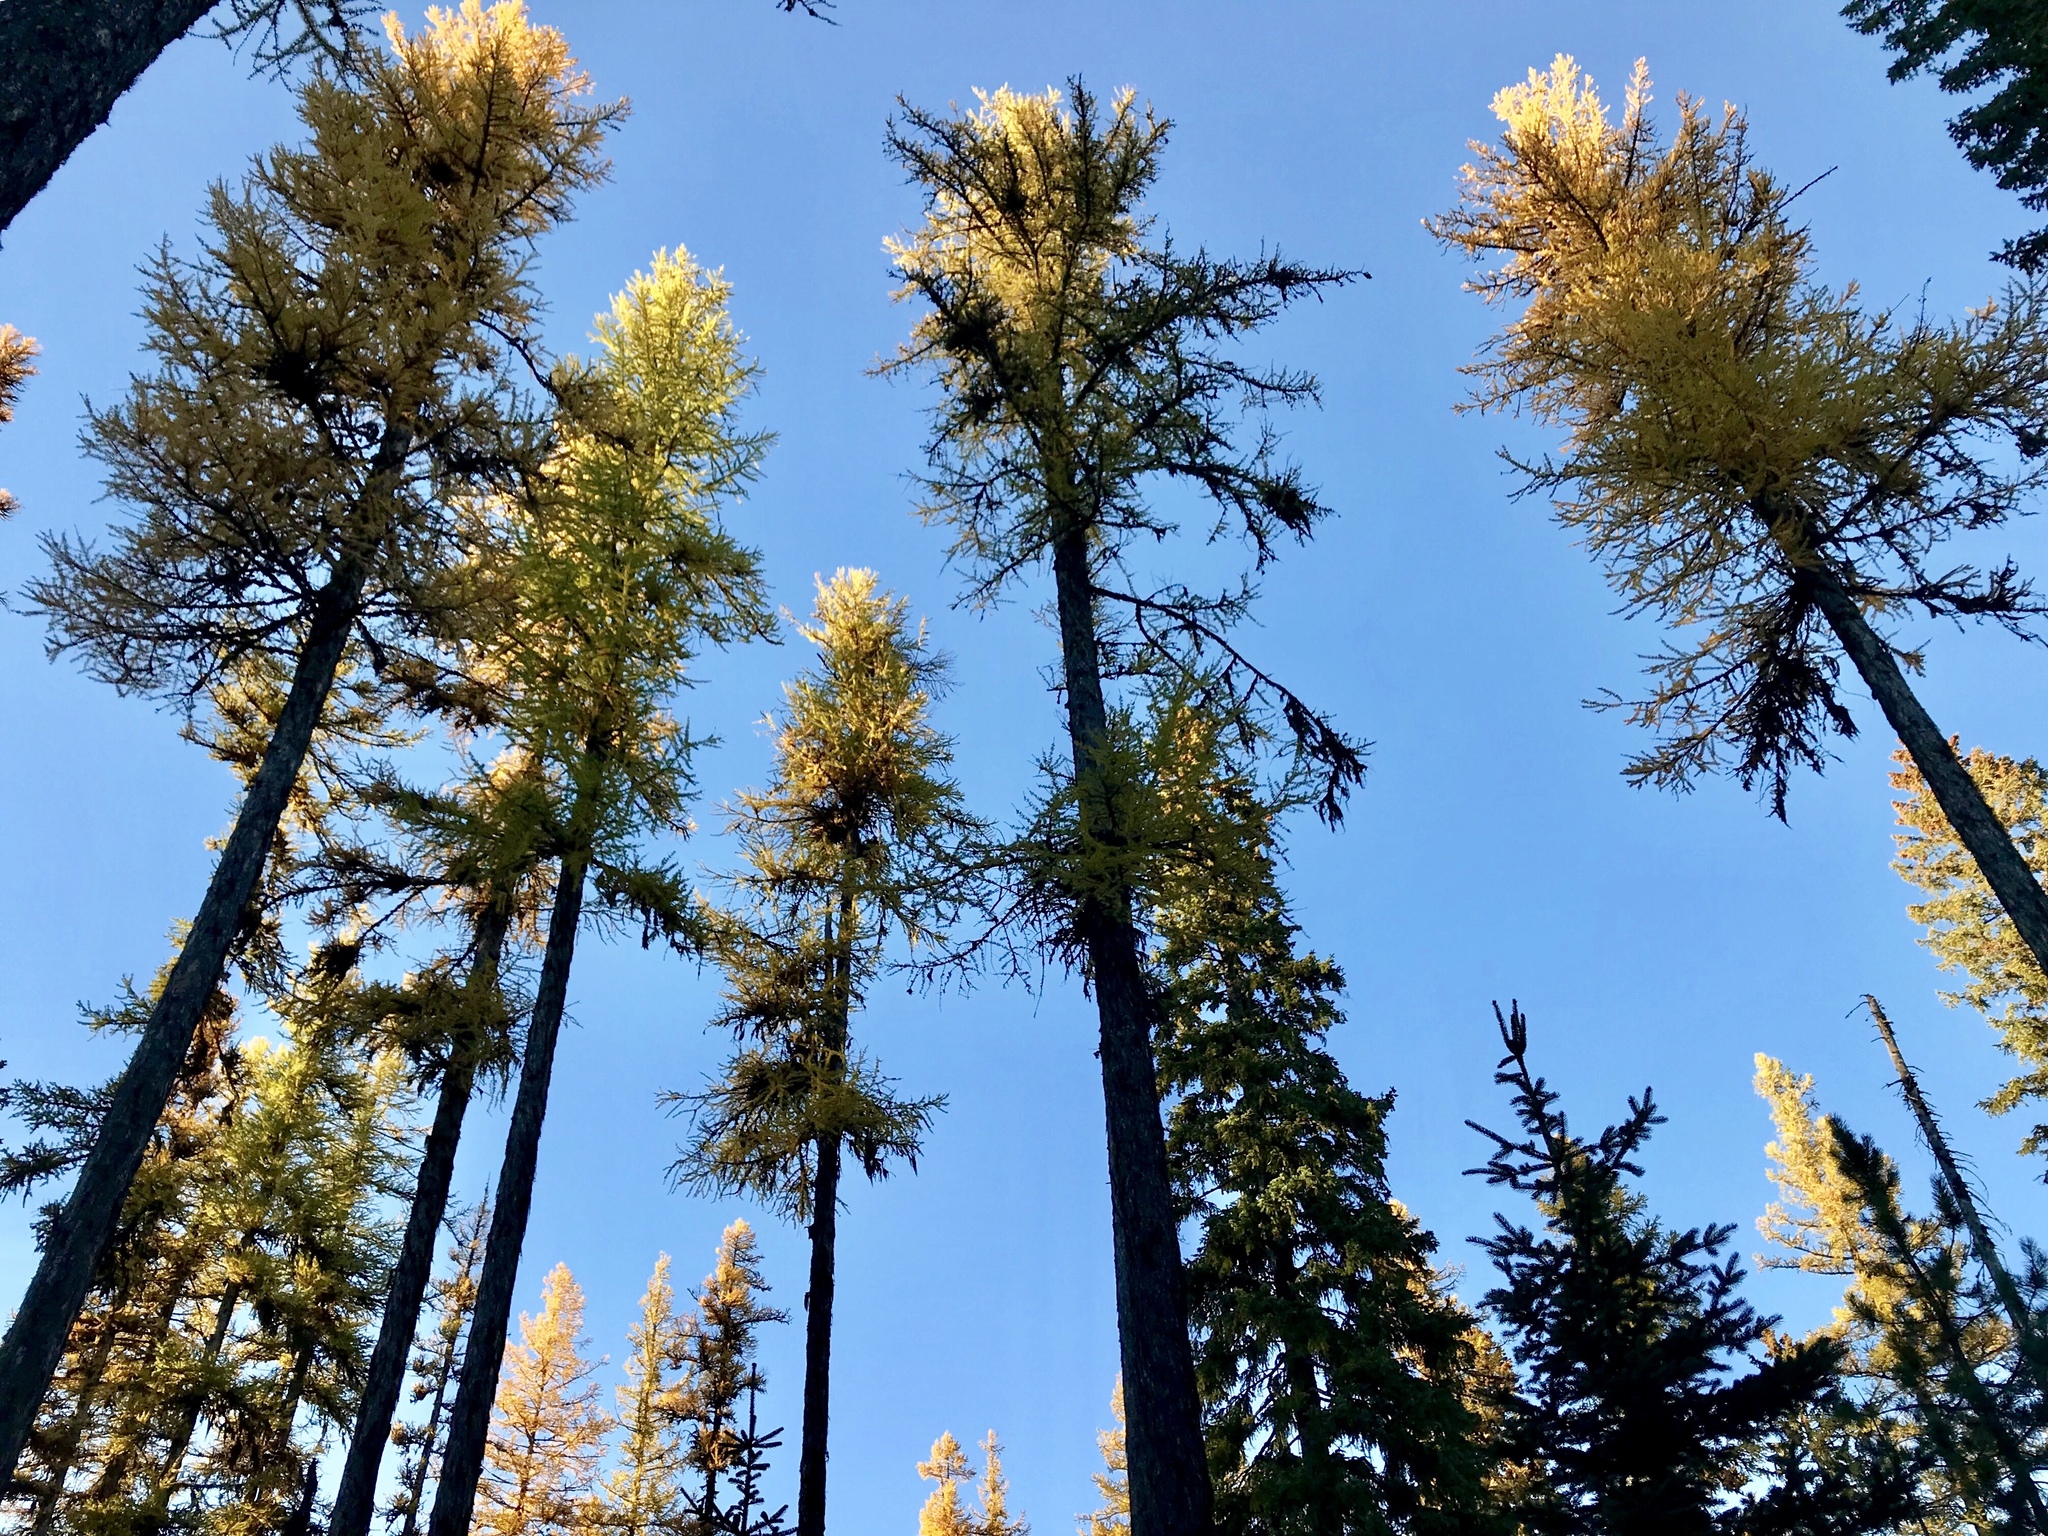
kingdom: Plantae
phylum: Tracheophyta
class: Pinopsida
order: Pinales
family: Pinaceae
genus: Larix
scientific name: Larix occidentalis
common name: Western larch
